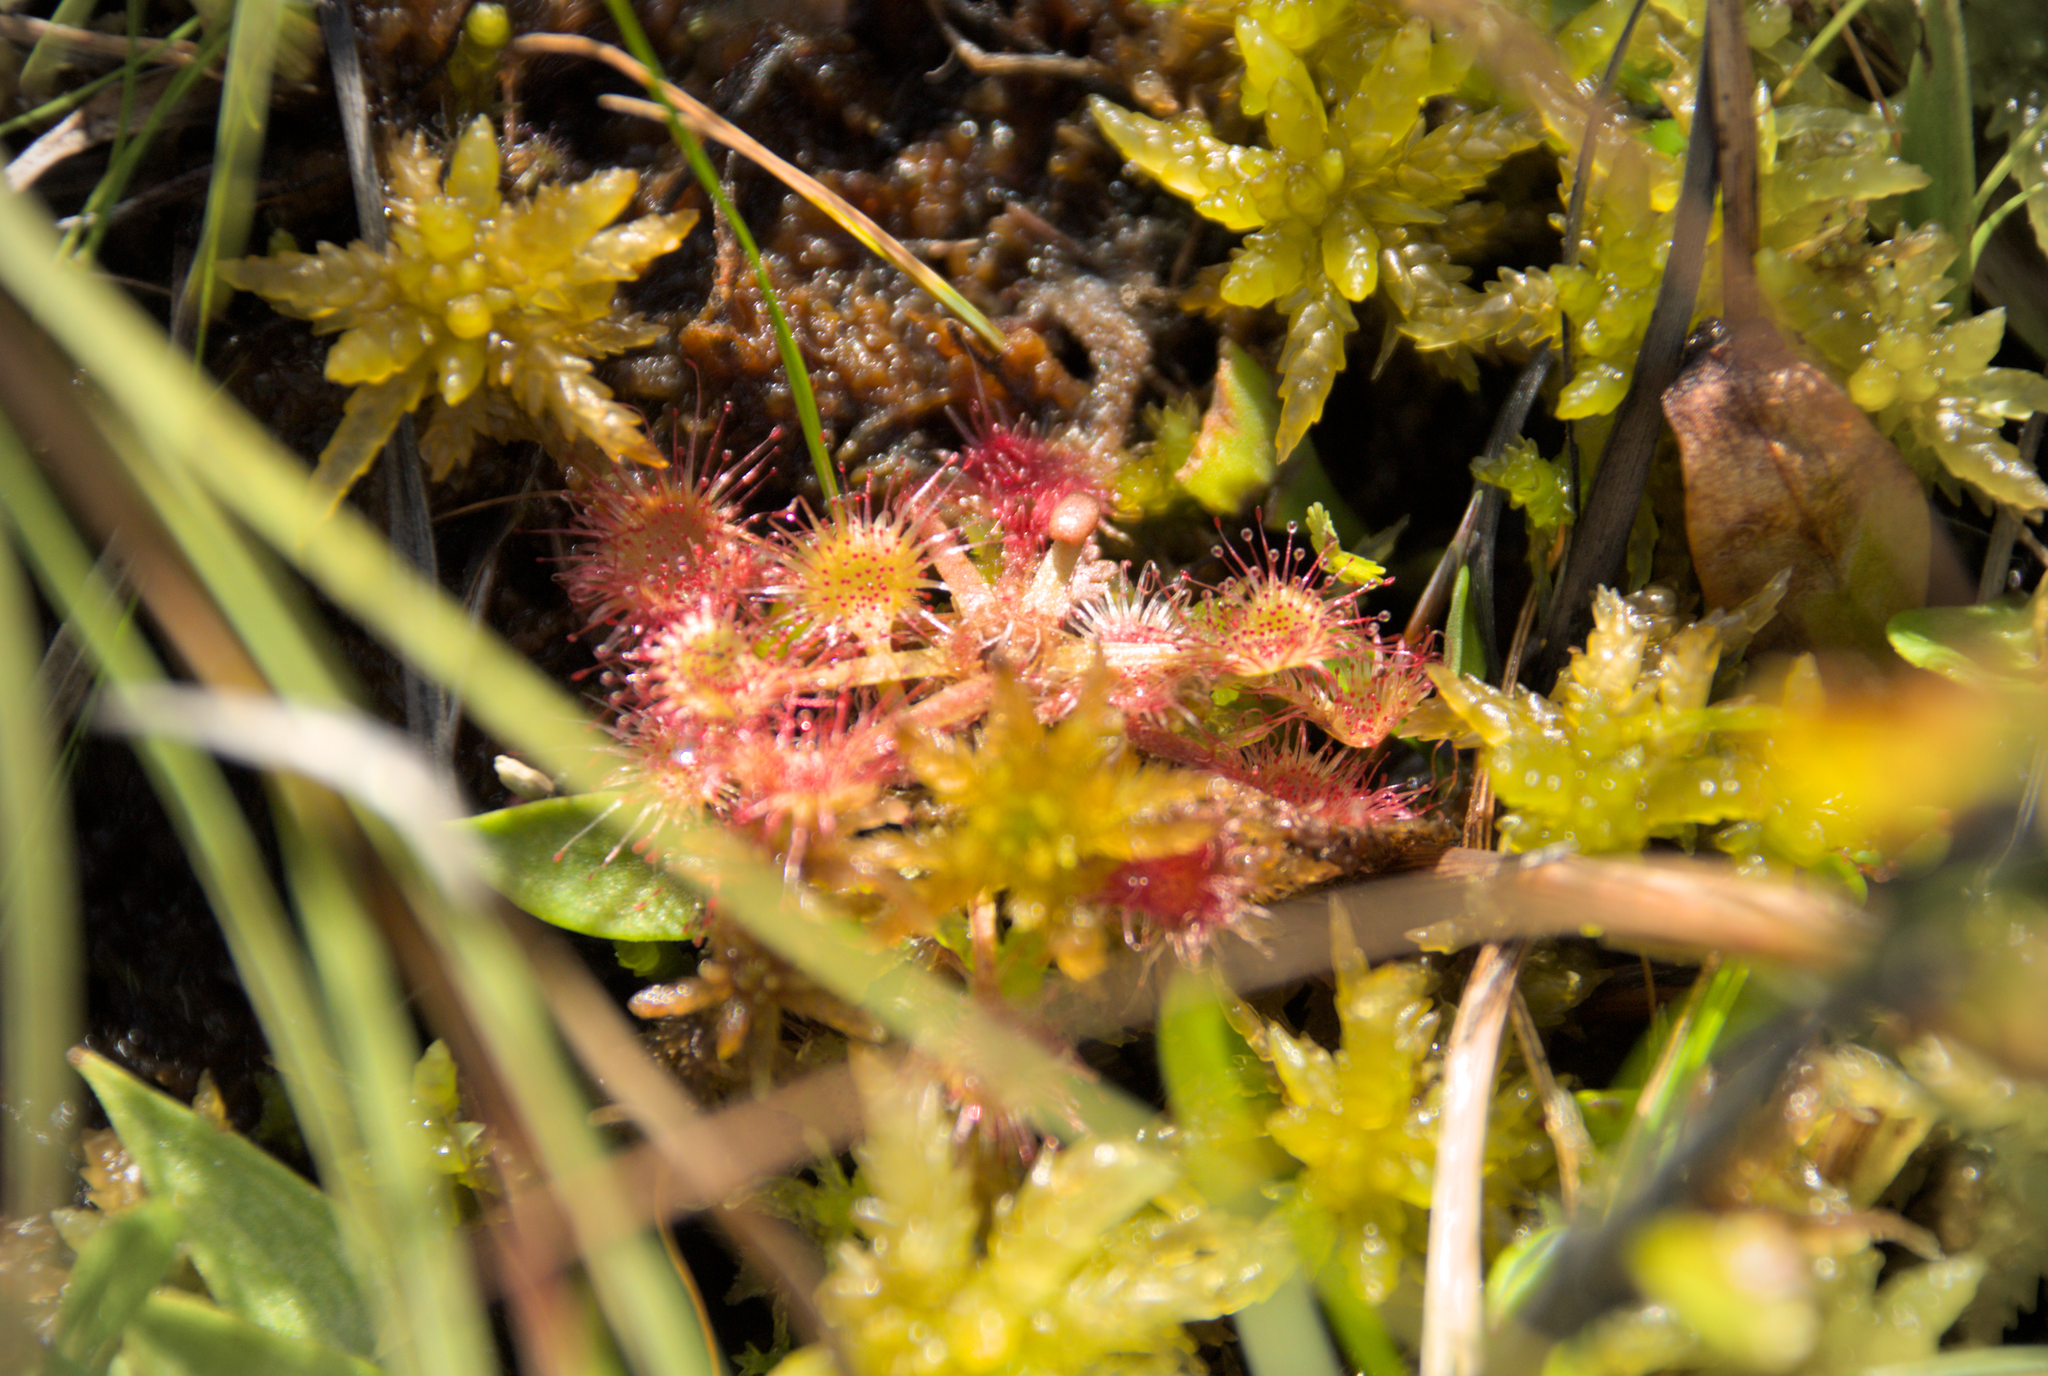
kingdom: Plantae
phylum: Tracheophyta
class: Magnoliopsida
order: Caryophyllales
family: Droseraceae
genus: Drosera
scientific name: Drosera rotundifolia
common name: Round-leaved sundew
